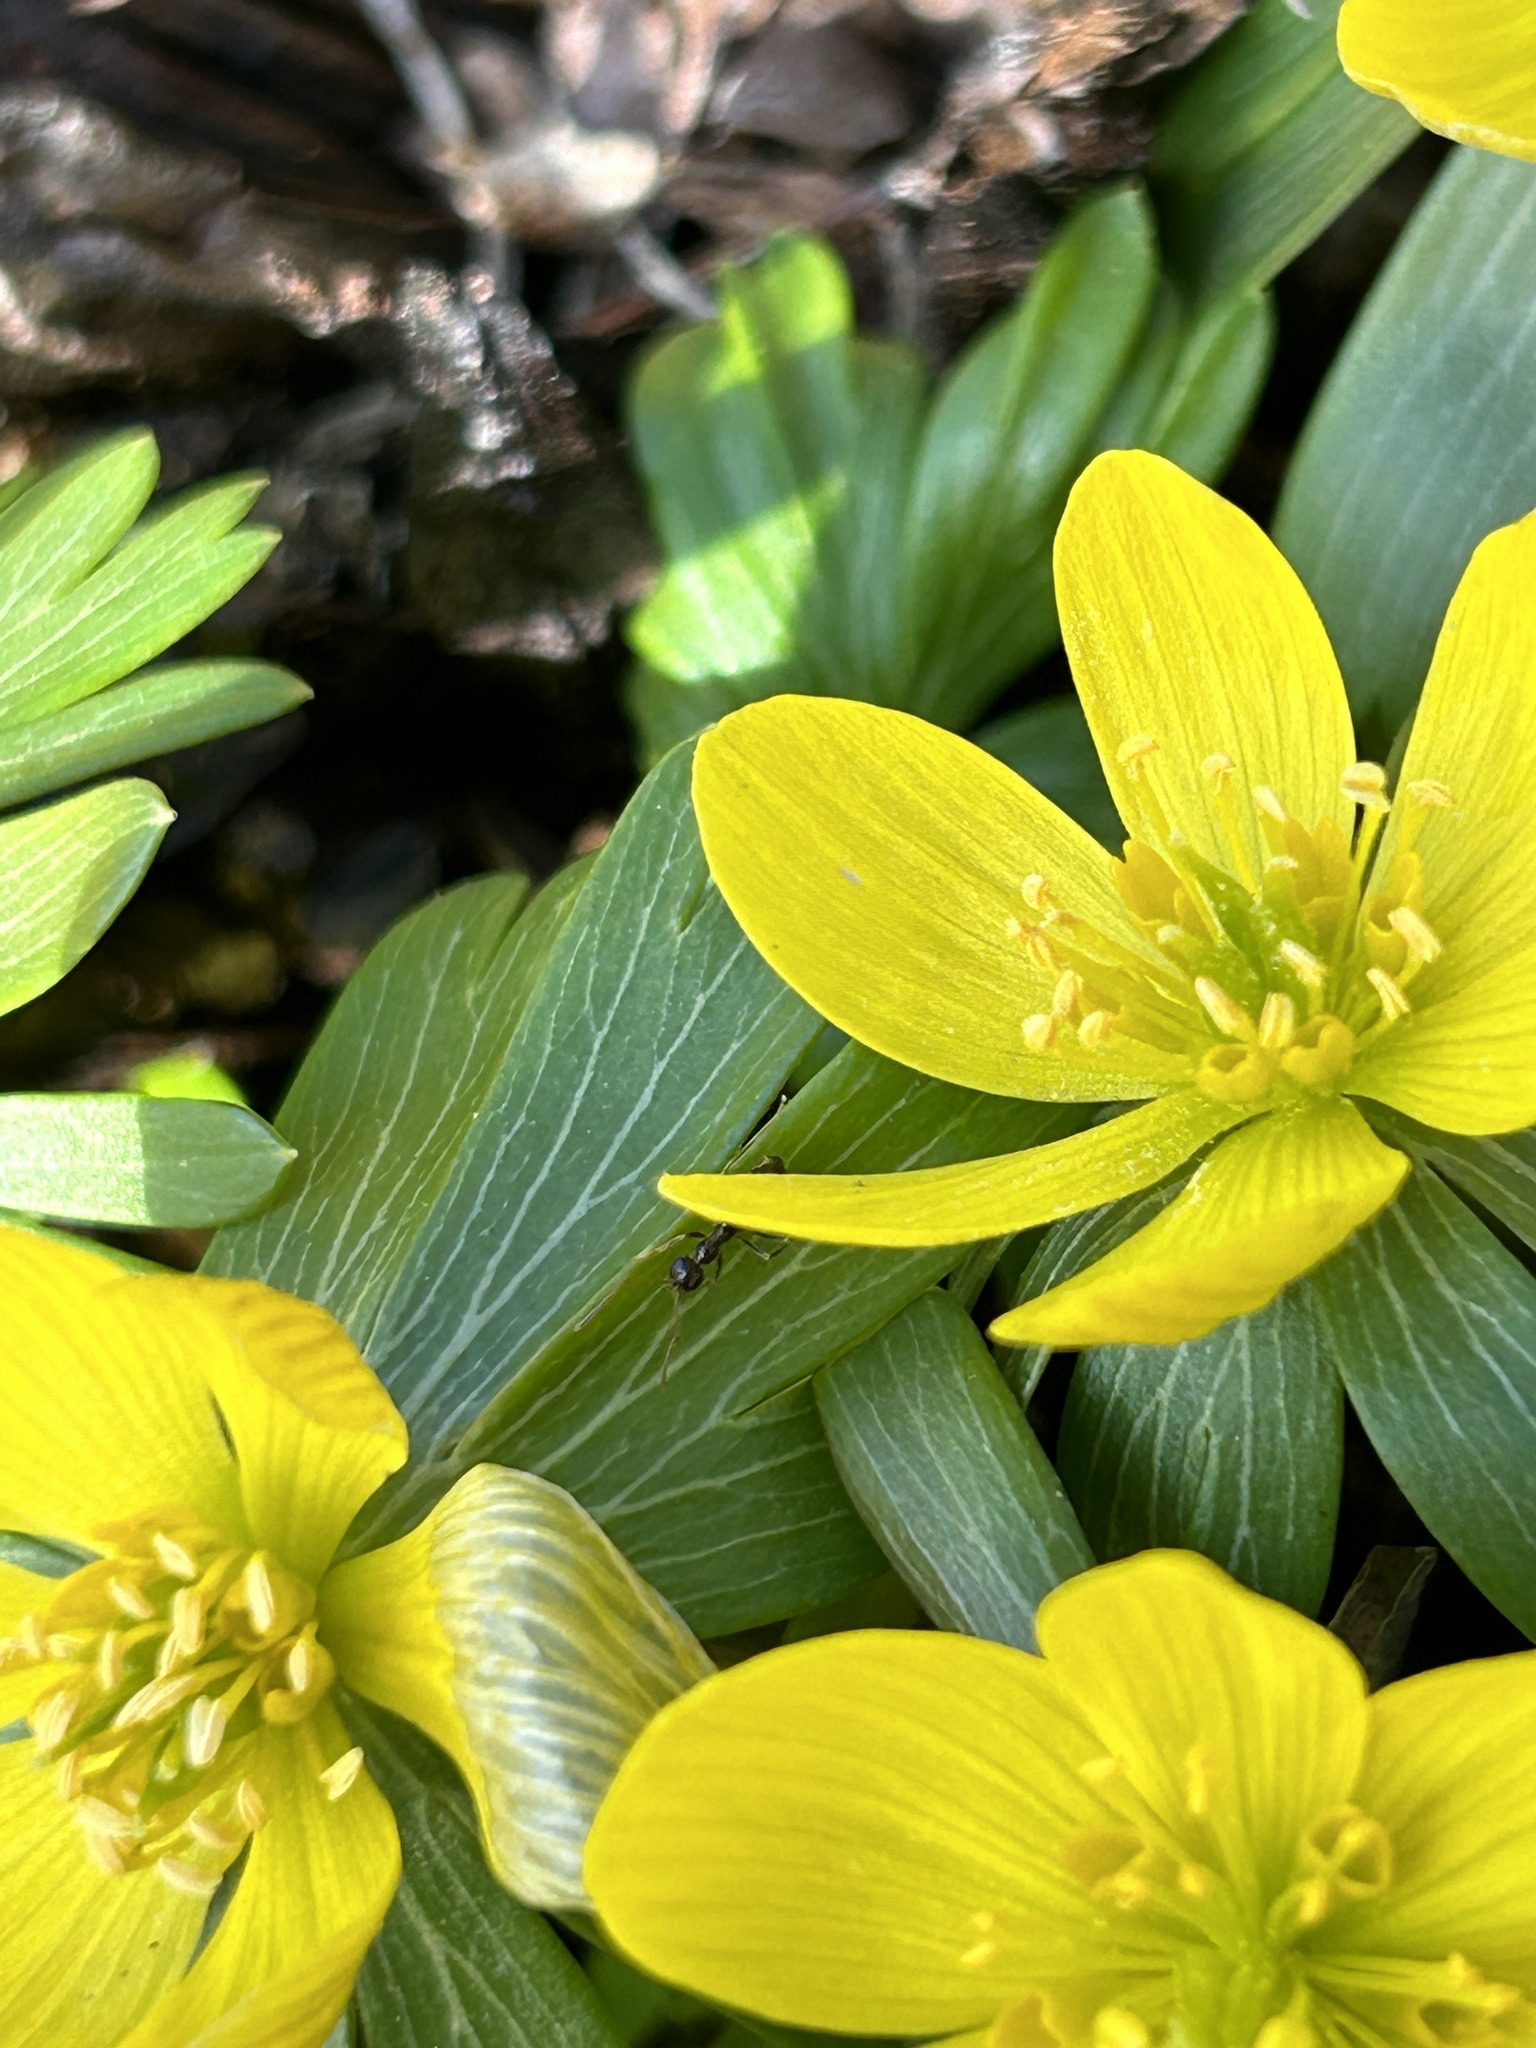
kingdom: Animalia
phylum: Arthropoda
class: Insecta
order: Hymenoptera
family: Formicidae
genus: Prenolepis
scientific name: Prenolepis imparis
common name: Small honey ant
